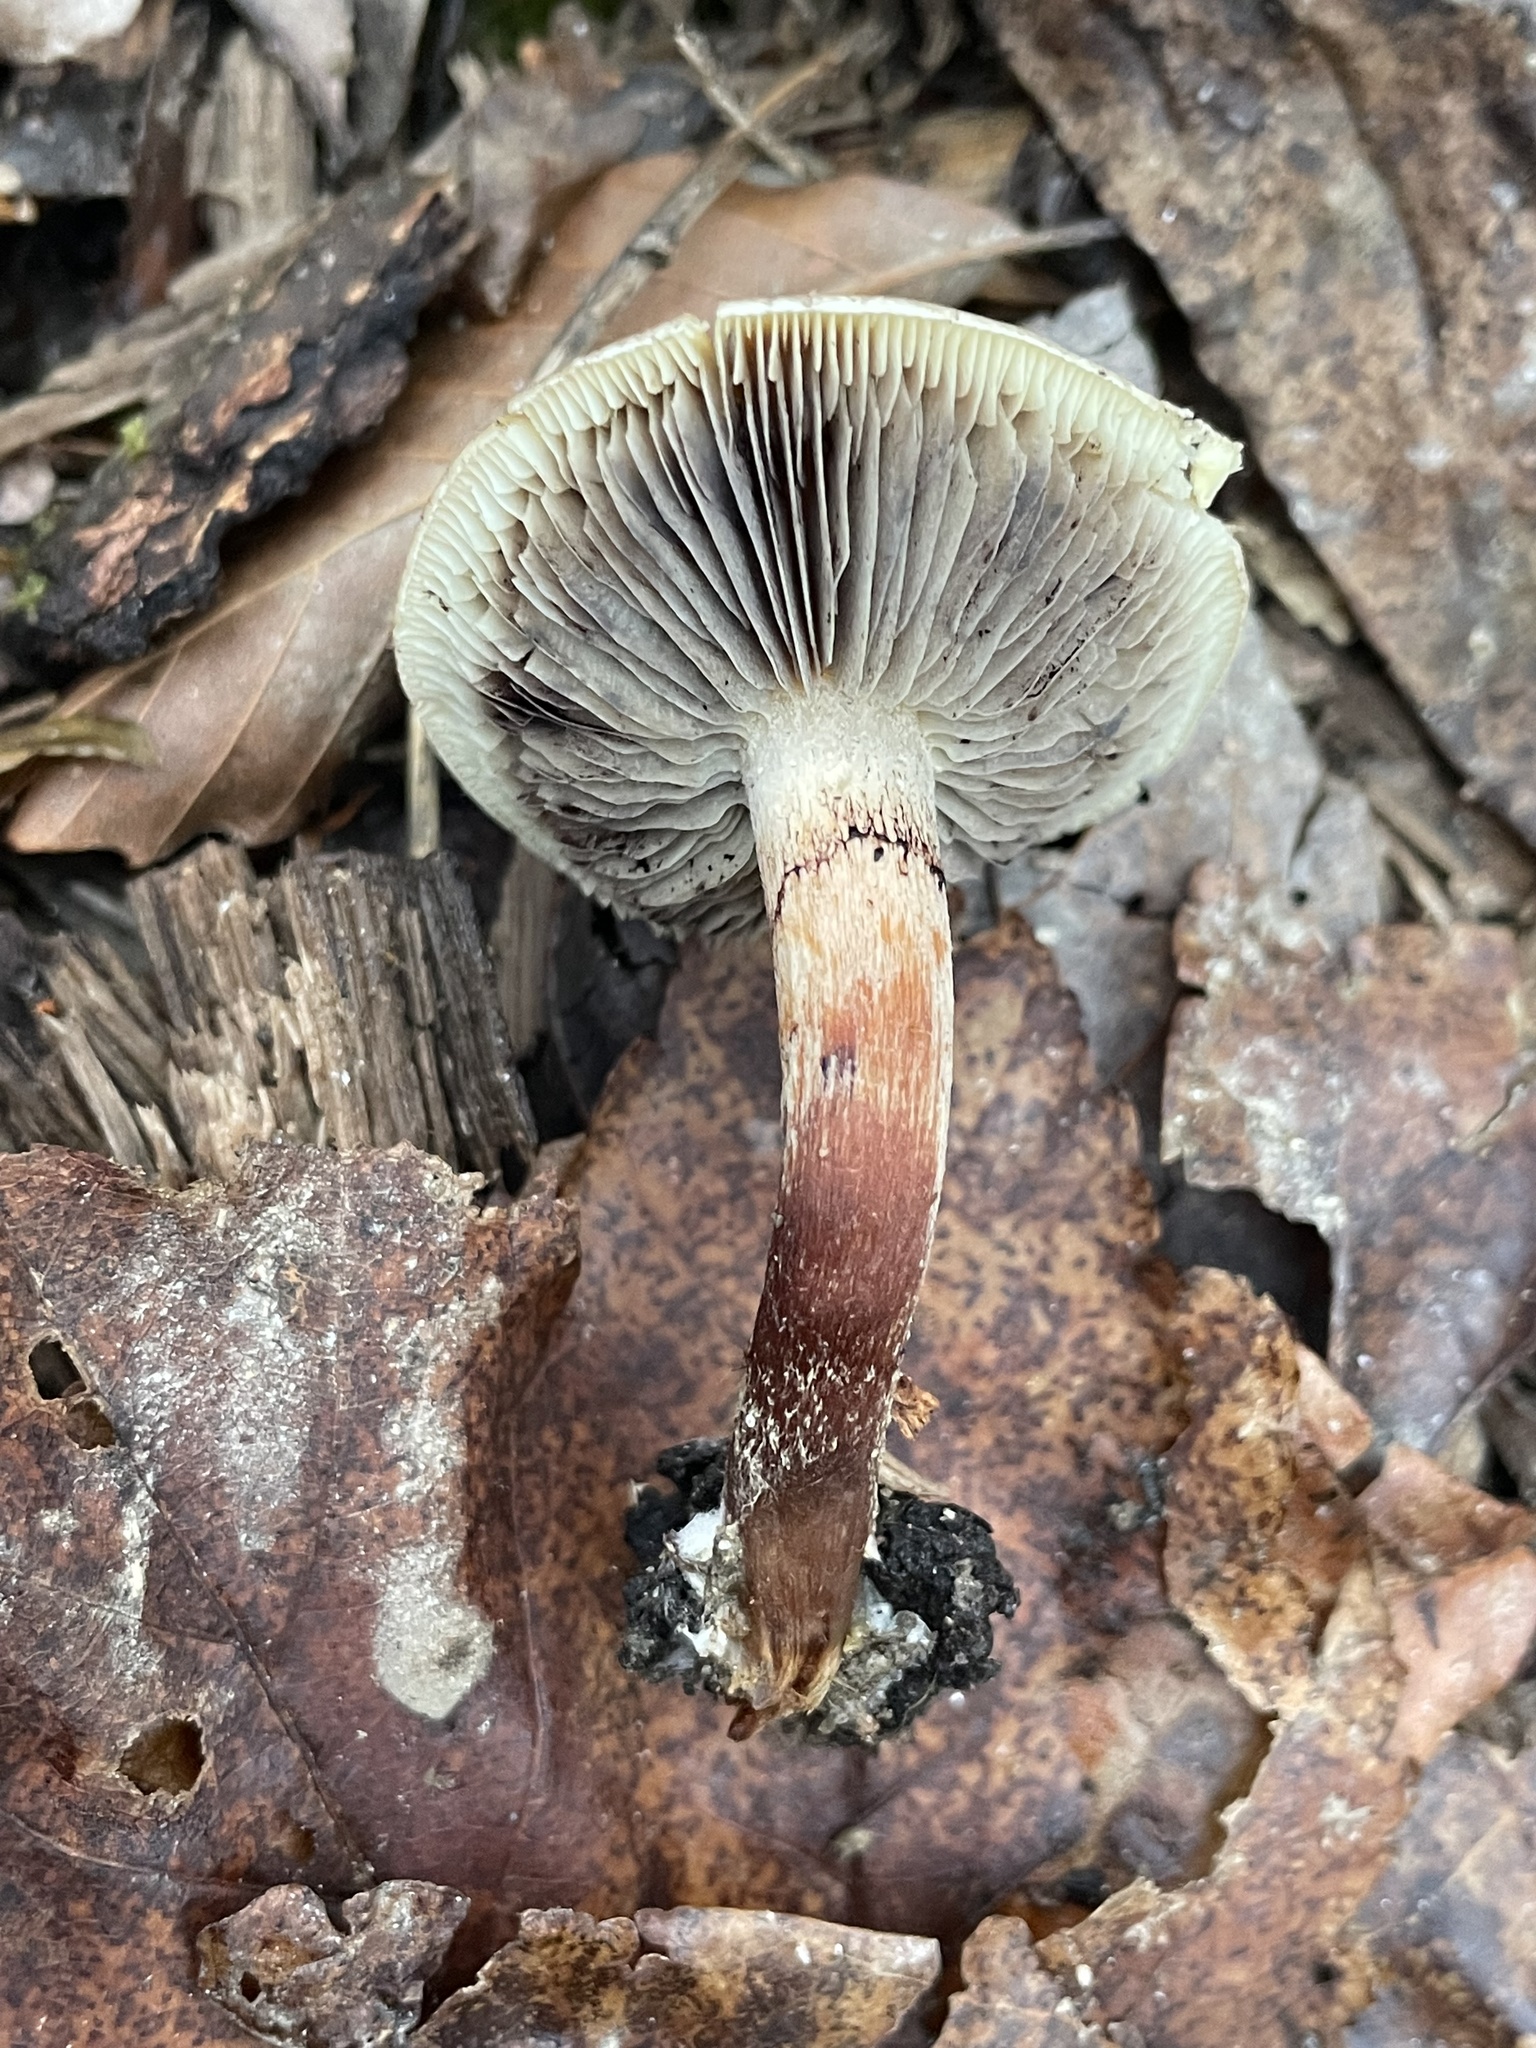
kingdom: Fungi
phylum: Basidiomycota
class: Agaricomycetes
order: Agaricales
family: Strophariaceae
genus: Hypholoma
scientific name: Hypholoma lateritium
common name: Brick caps
